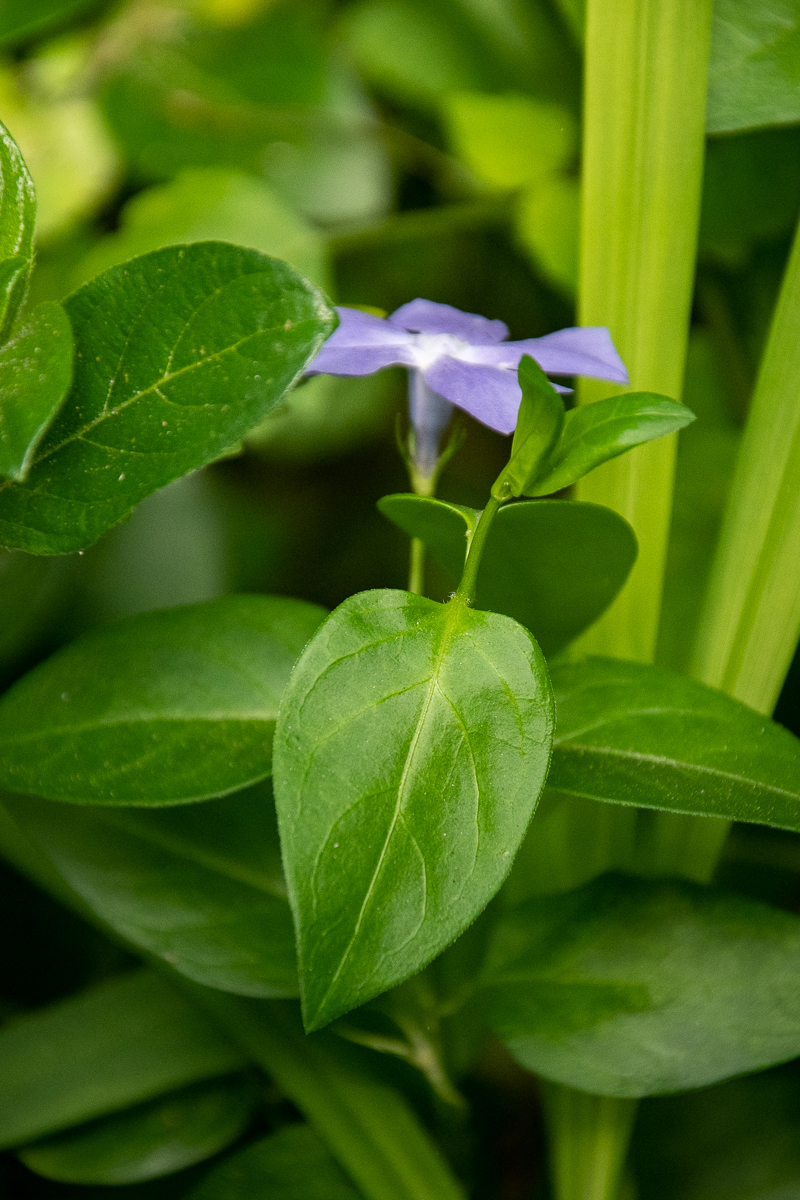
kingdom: Plantae
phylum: Tracheophyta
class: Magnoliopsida
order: Gentianales
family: Apocynaceae
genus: Vinca
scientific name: Vinca major
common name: Greater periwinkle
